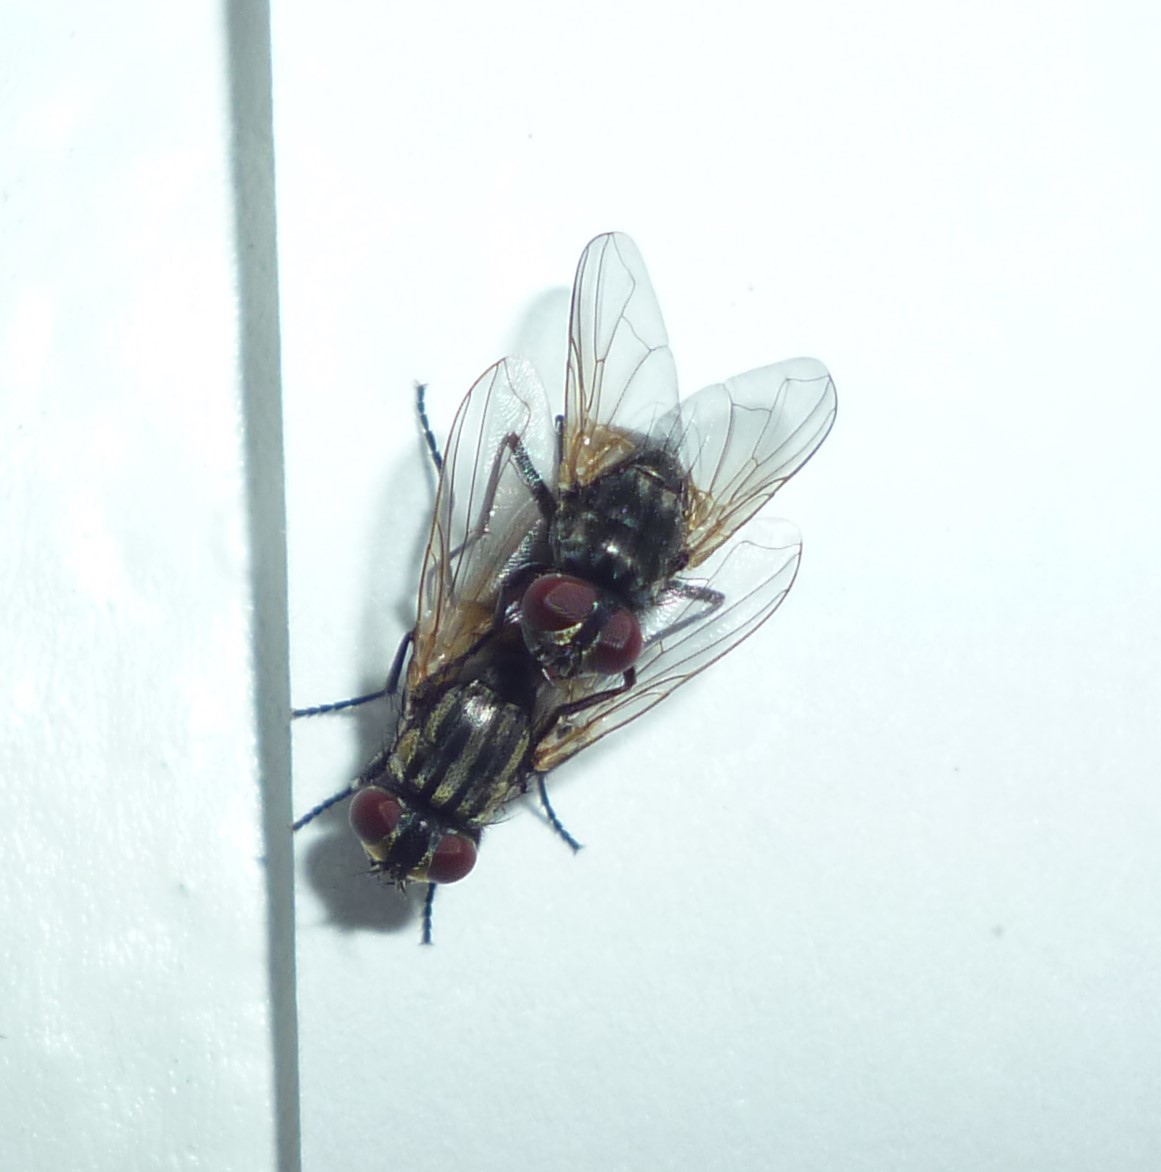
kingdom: Animalia
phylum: Arthropoda
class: Insecta
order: Diptera
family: Muscidae
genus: Musca
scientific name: Musca domestica
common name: House fly
